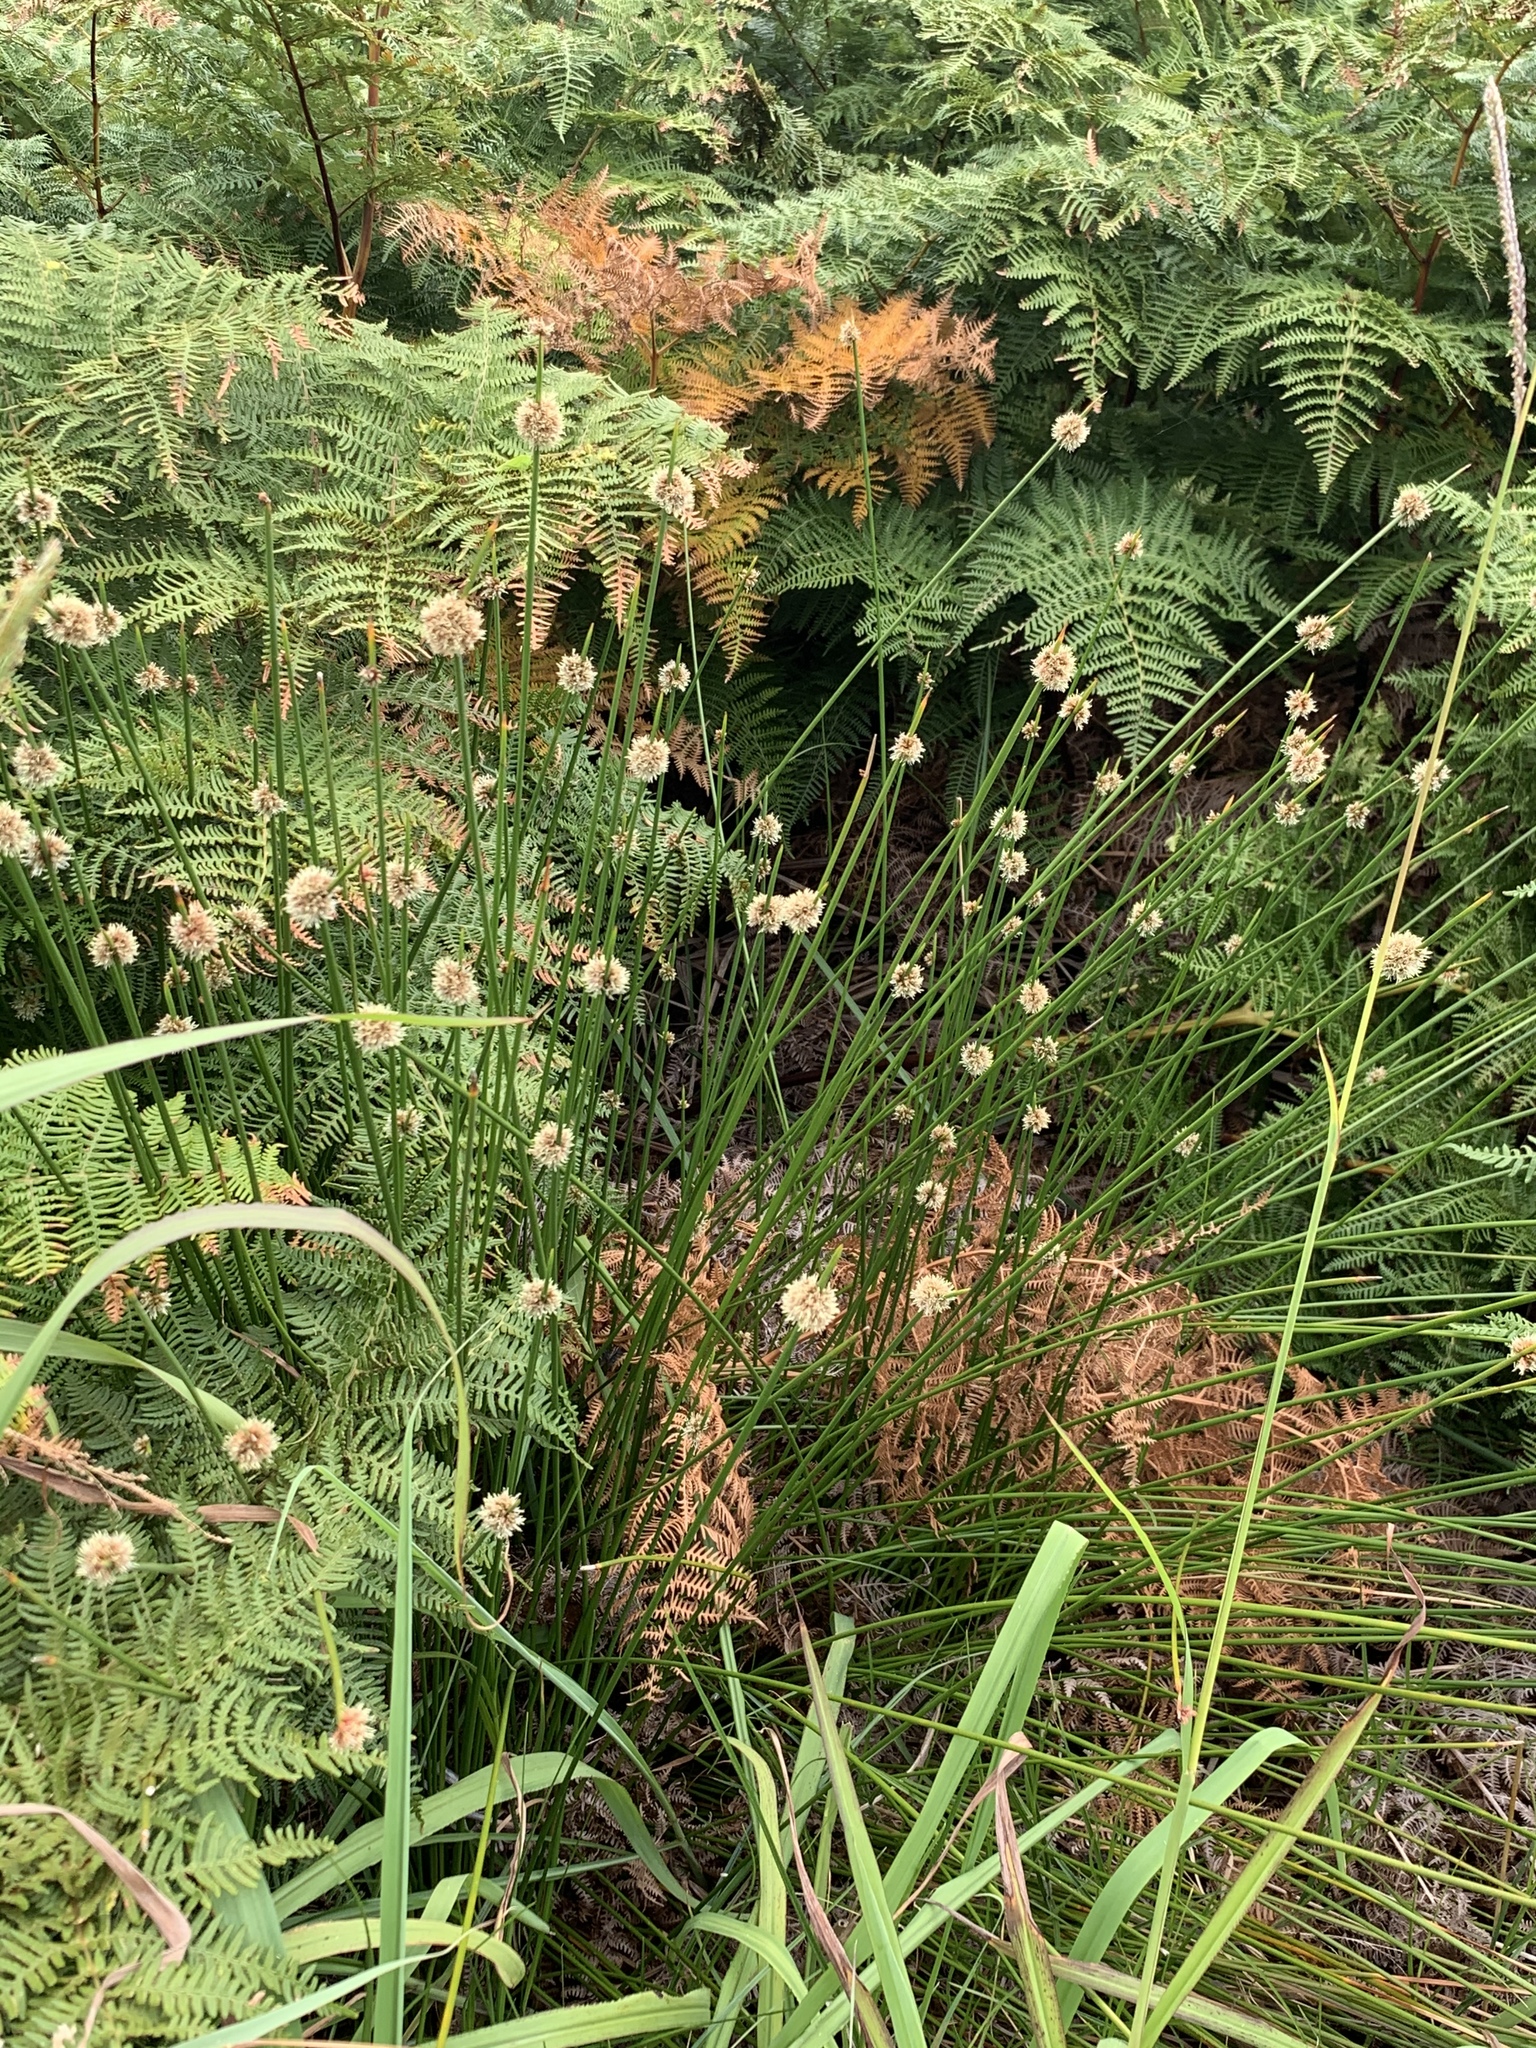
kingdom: Plantae
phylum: Tracheophyta
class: Liliopsida
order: Poales
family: Cyperaceae
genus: Ficinia
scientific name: Ficinia nodosa
